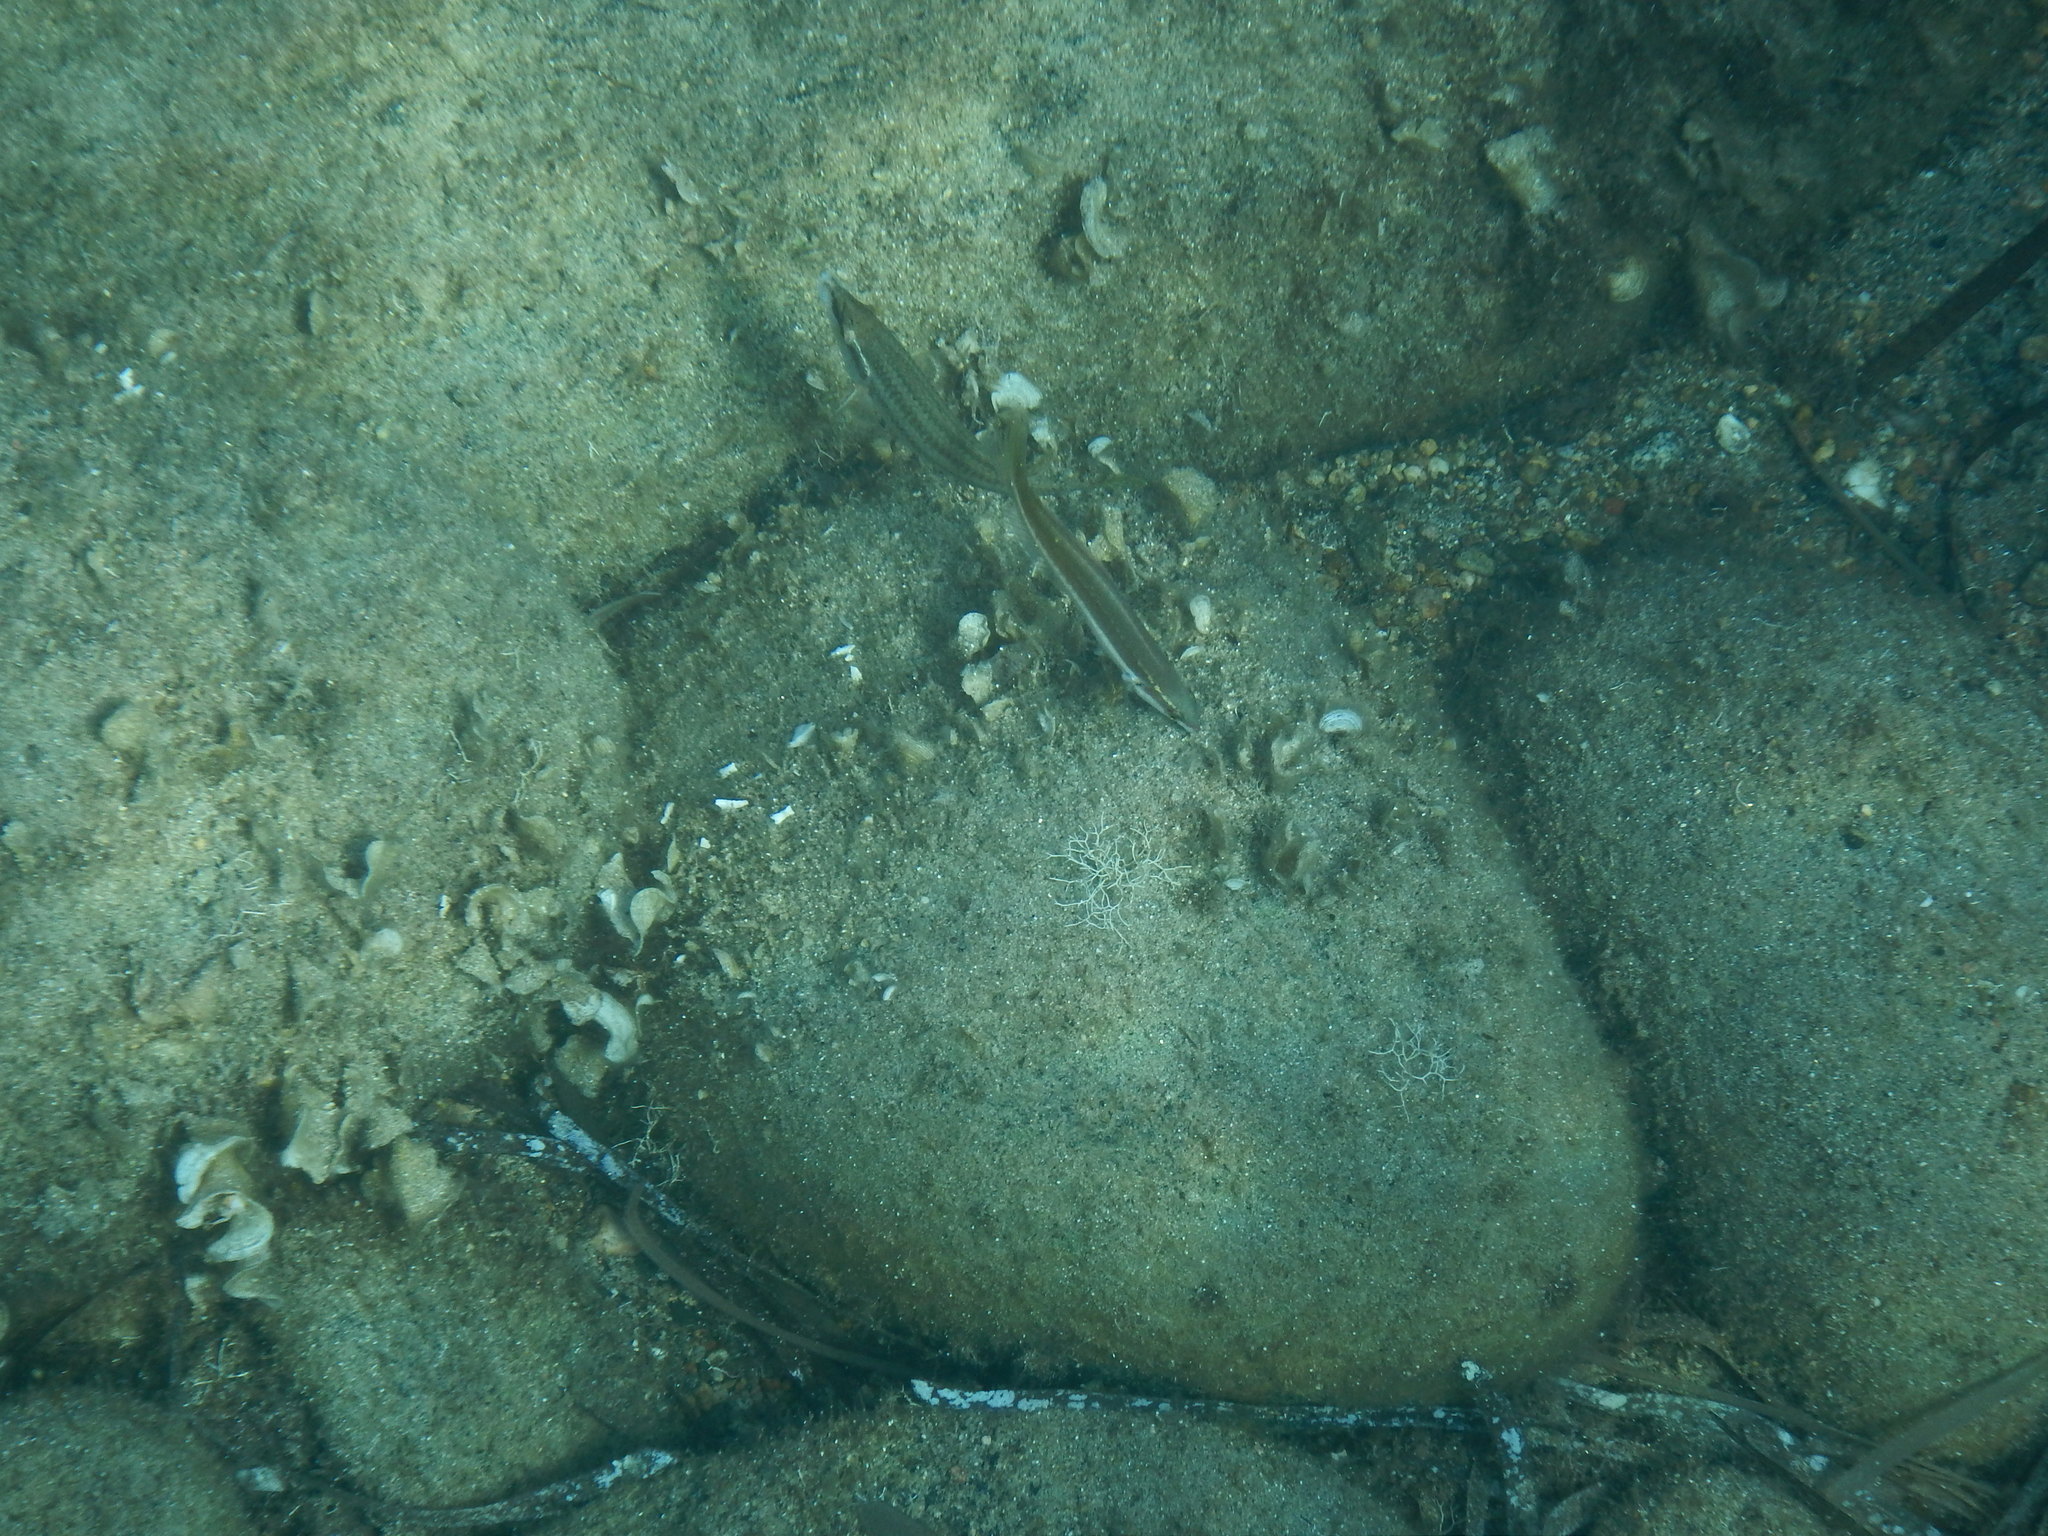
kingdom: Animalia
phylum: Chordata
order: Perciformes
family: Labridae
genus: Coris
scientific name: Coris julis
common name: Rainbow wrasse
